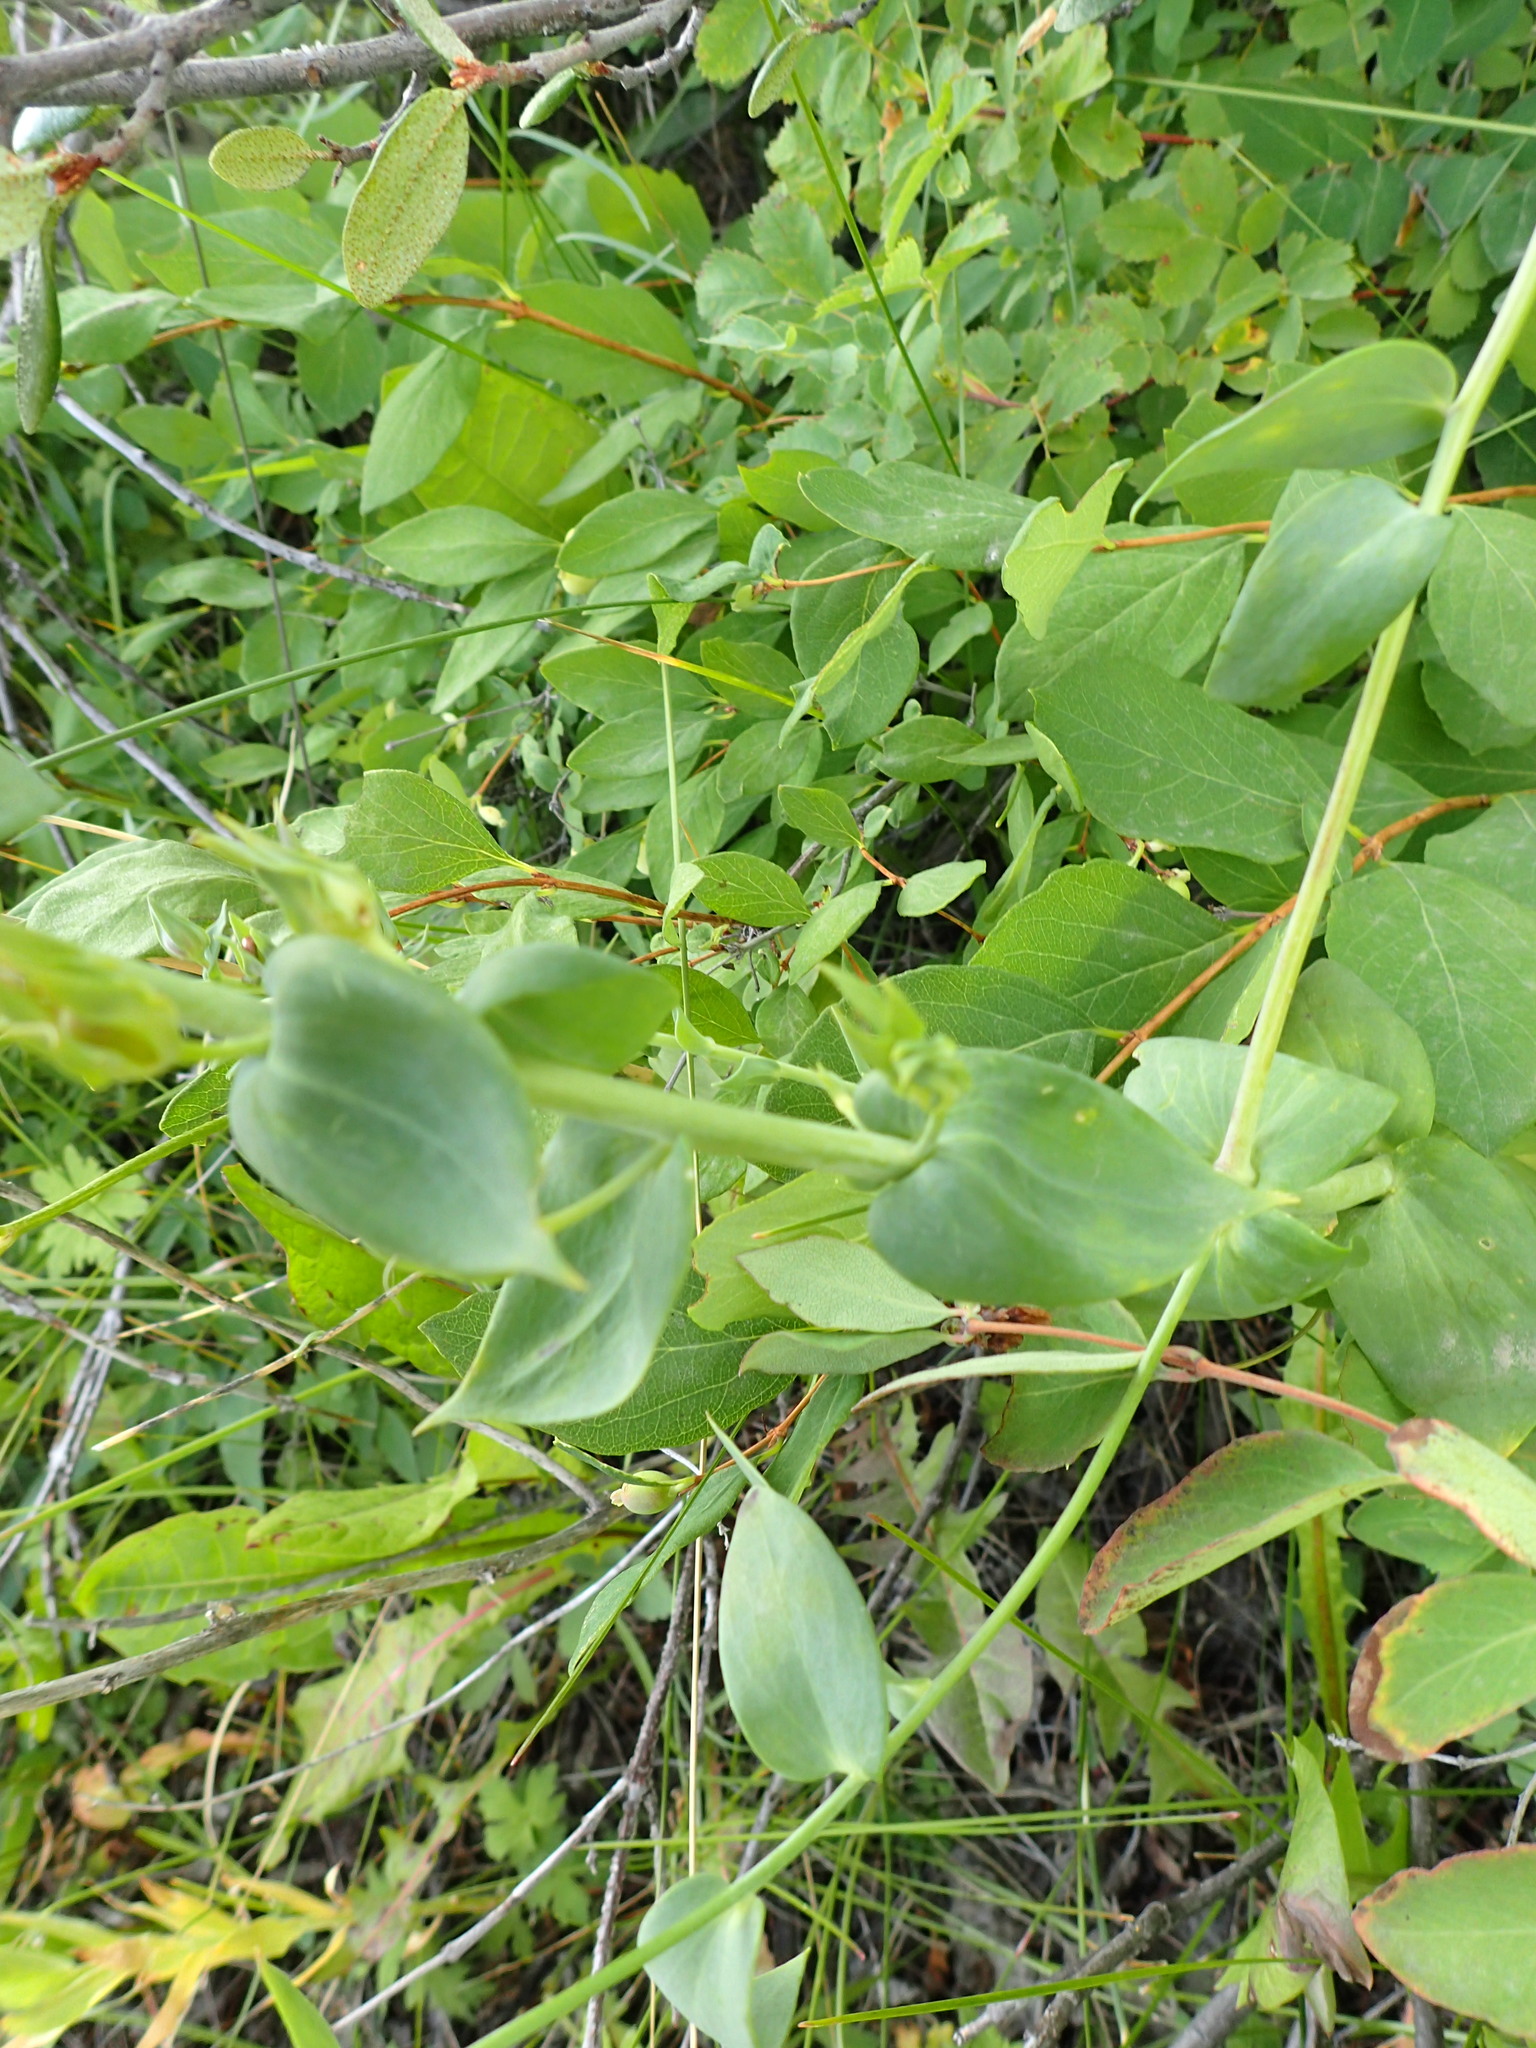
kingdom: Plantae
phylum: Tracheophyta
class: Magnoliopsida
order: Lamiales
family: Plantaginaceae
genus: Linaria
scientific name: Linaria dalmatica
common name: Dalmatian toadflax
